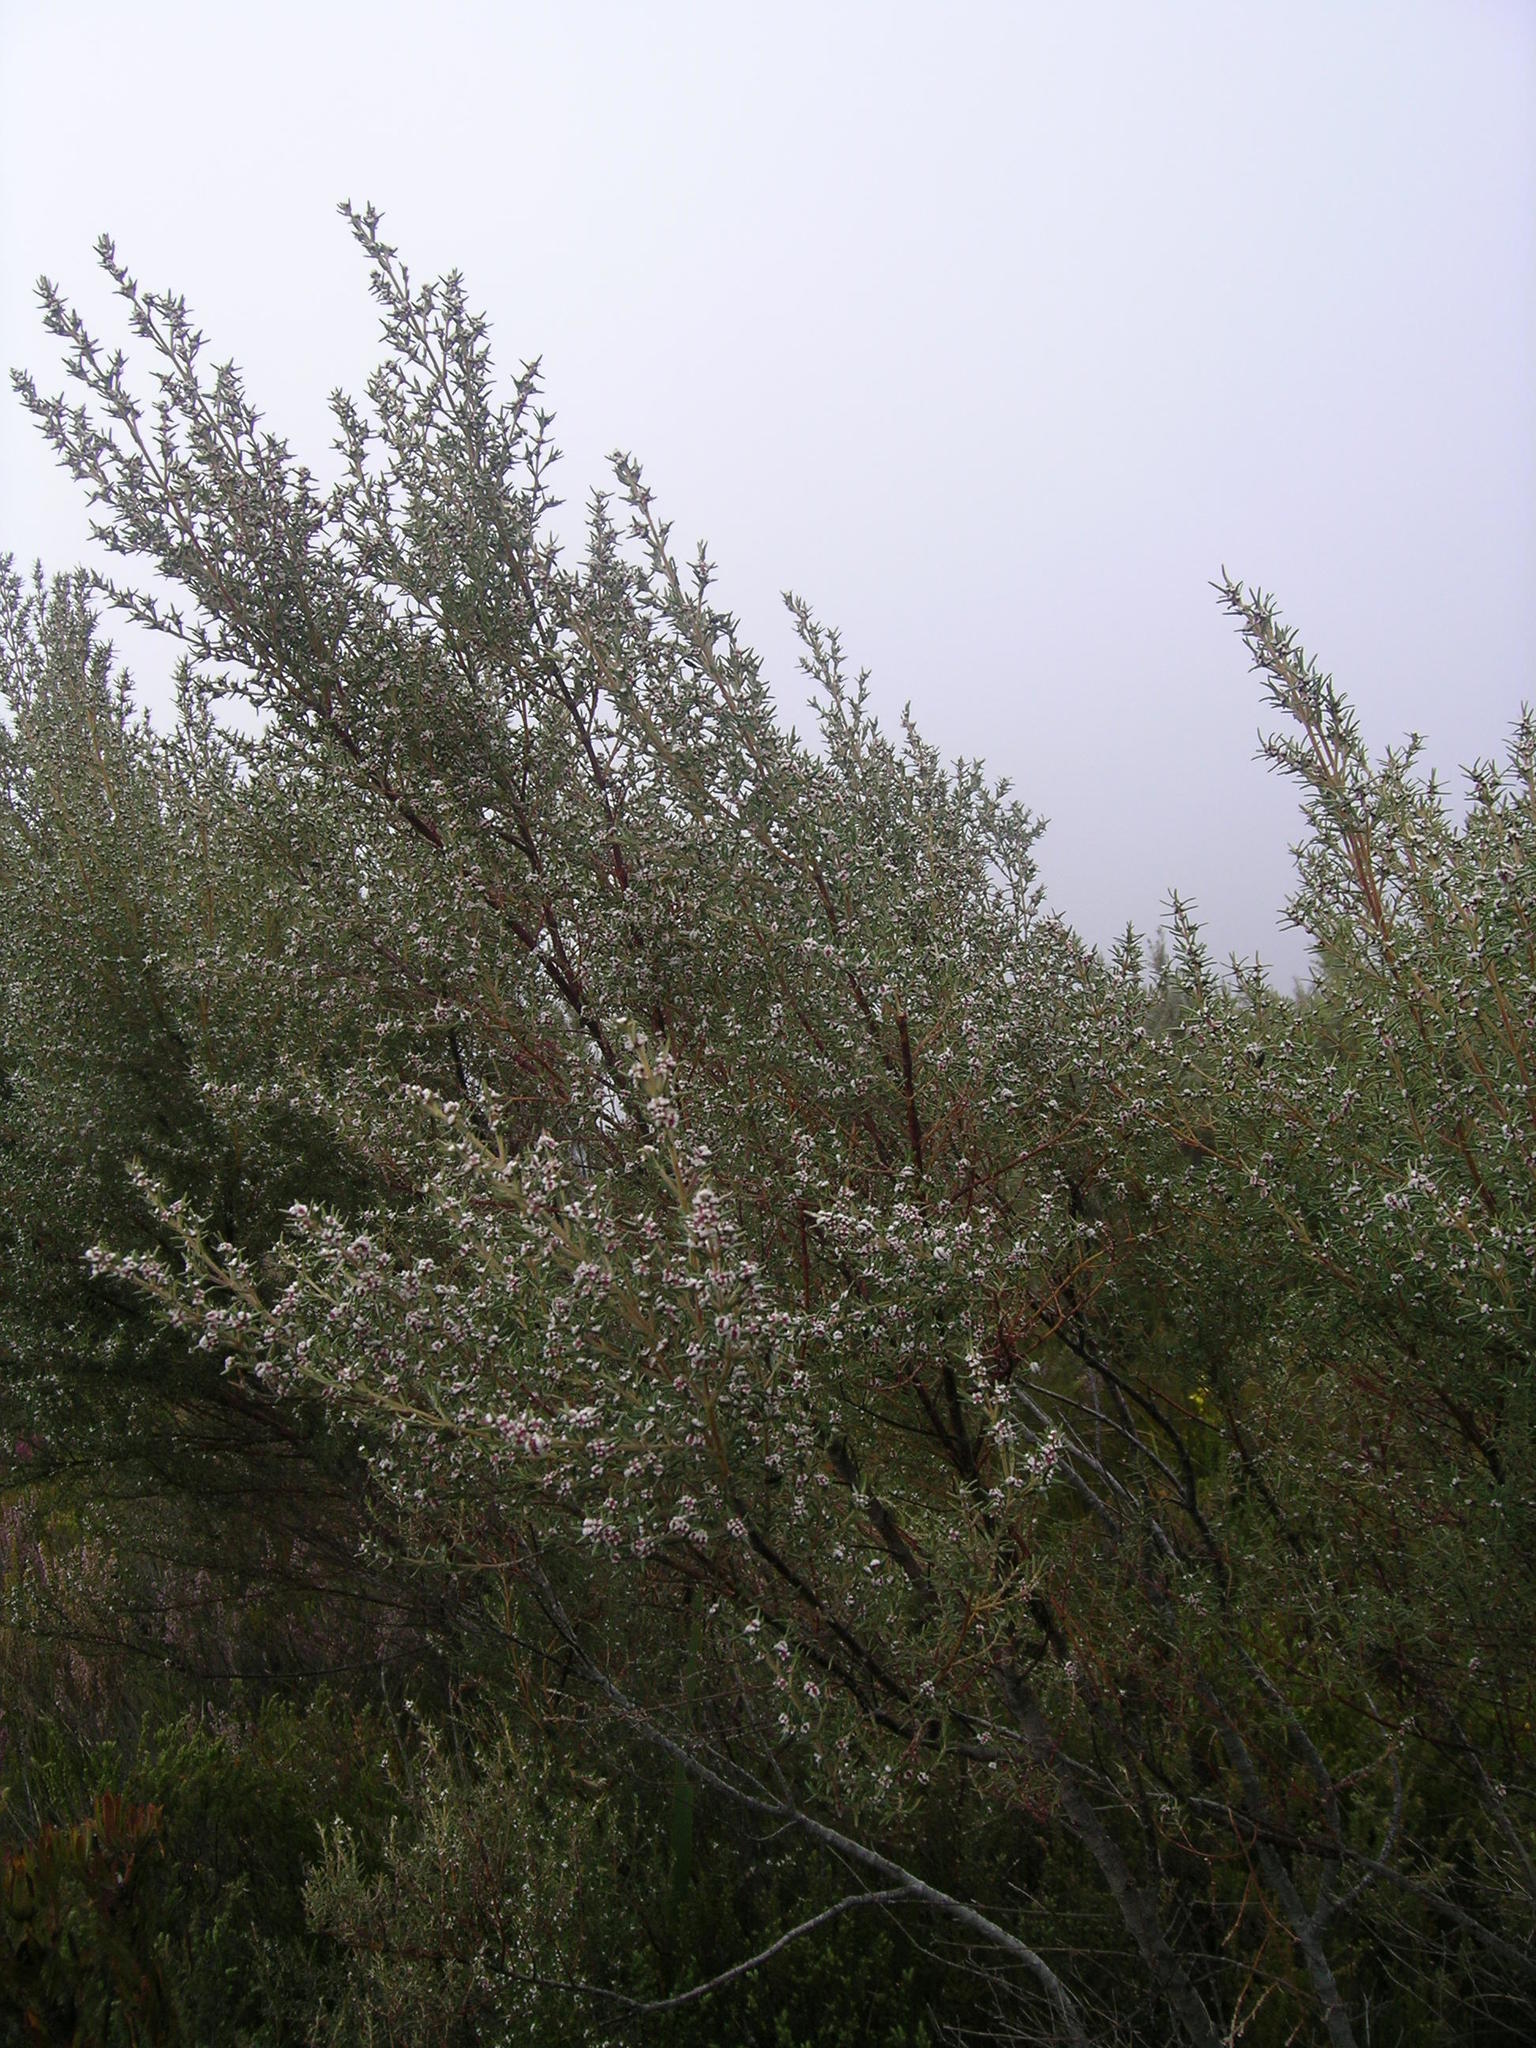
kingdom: Plantae
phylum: Tracheophyta
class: Magnoliopsida
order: Cornales
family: Grubbiaceae
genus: Grubbia
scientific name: Grubbia rosmarinifolia
